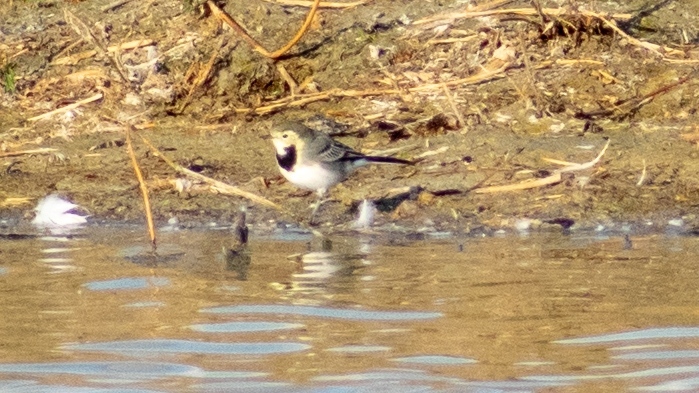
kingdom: Animalia
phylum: Chordata
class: Aves
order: Passeriformes
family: Motacillidae
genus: Motacilla
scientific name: Motacilla alba
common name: White wagtail
